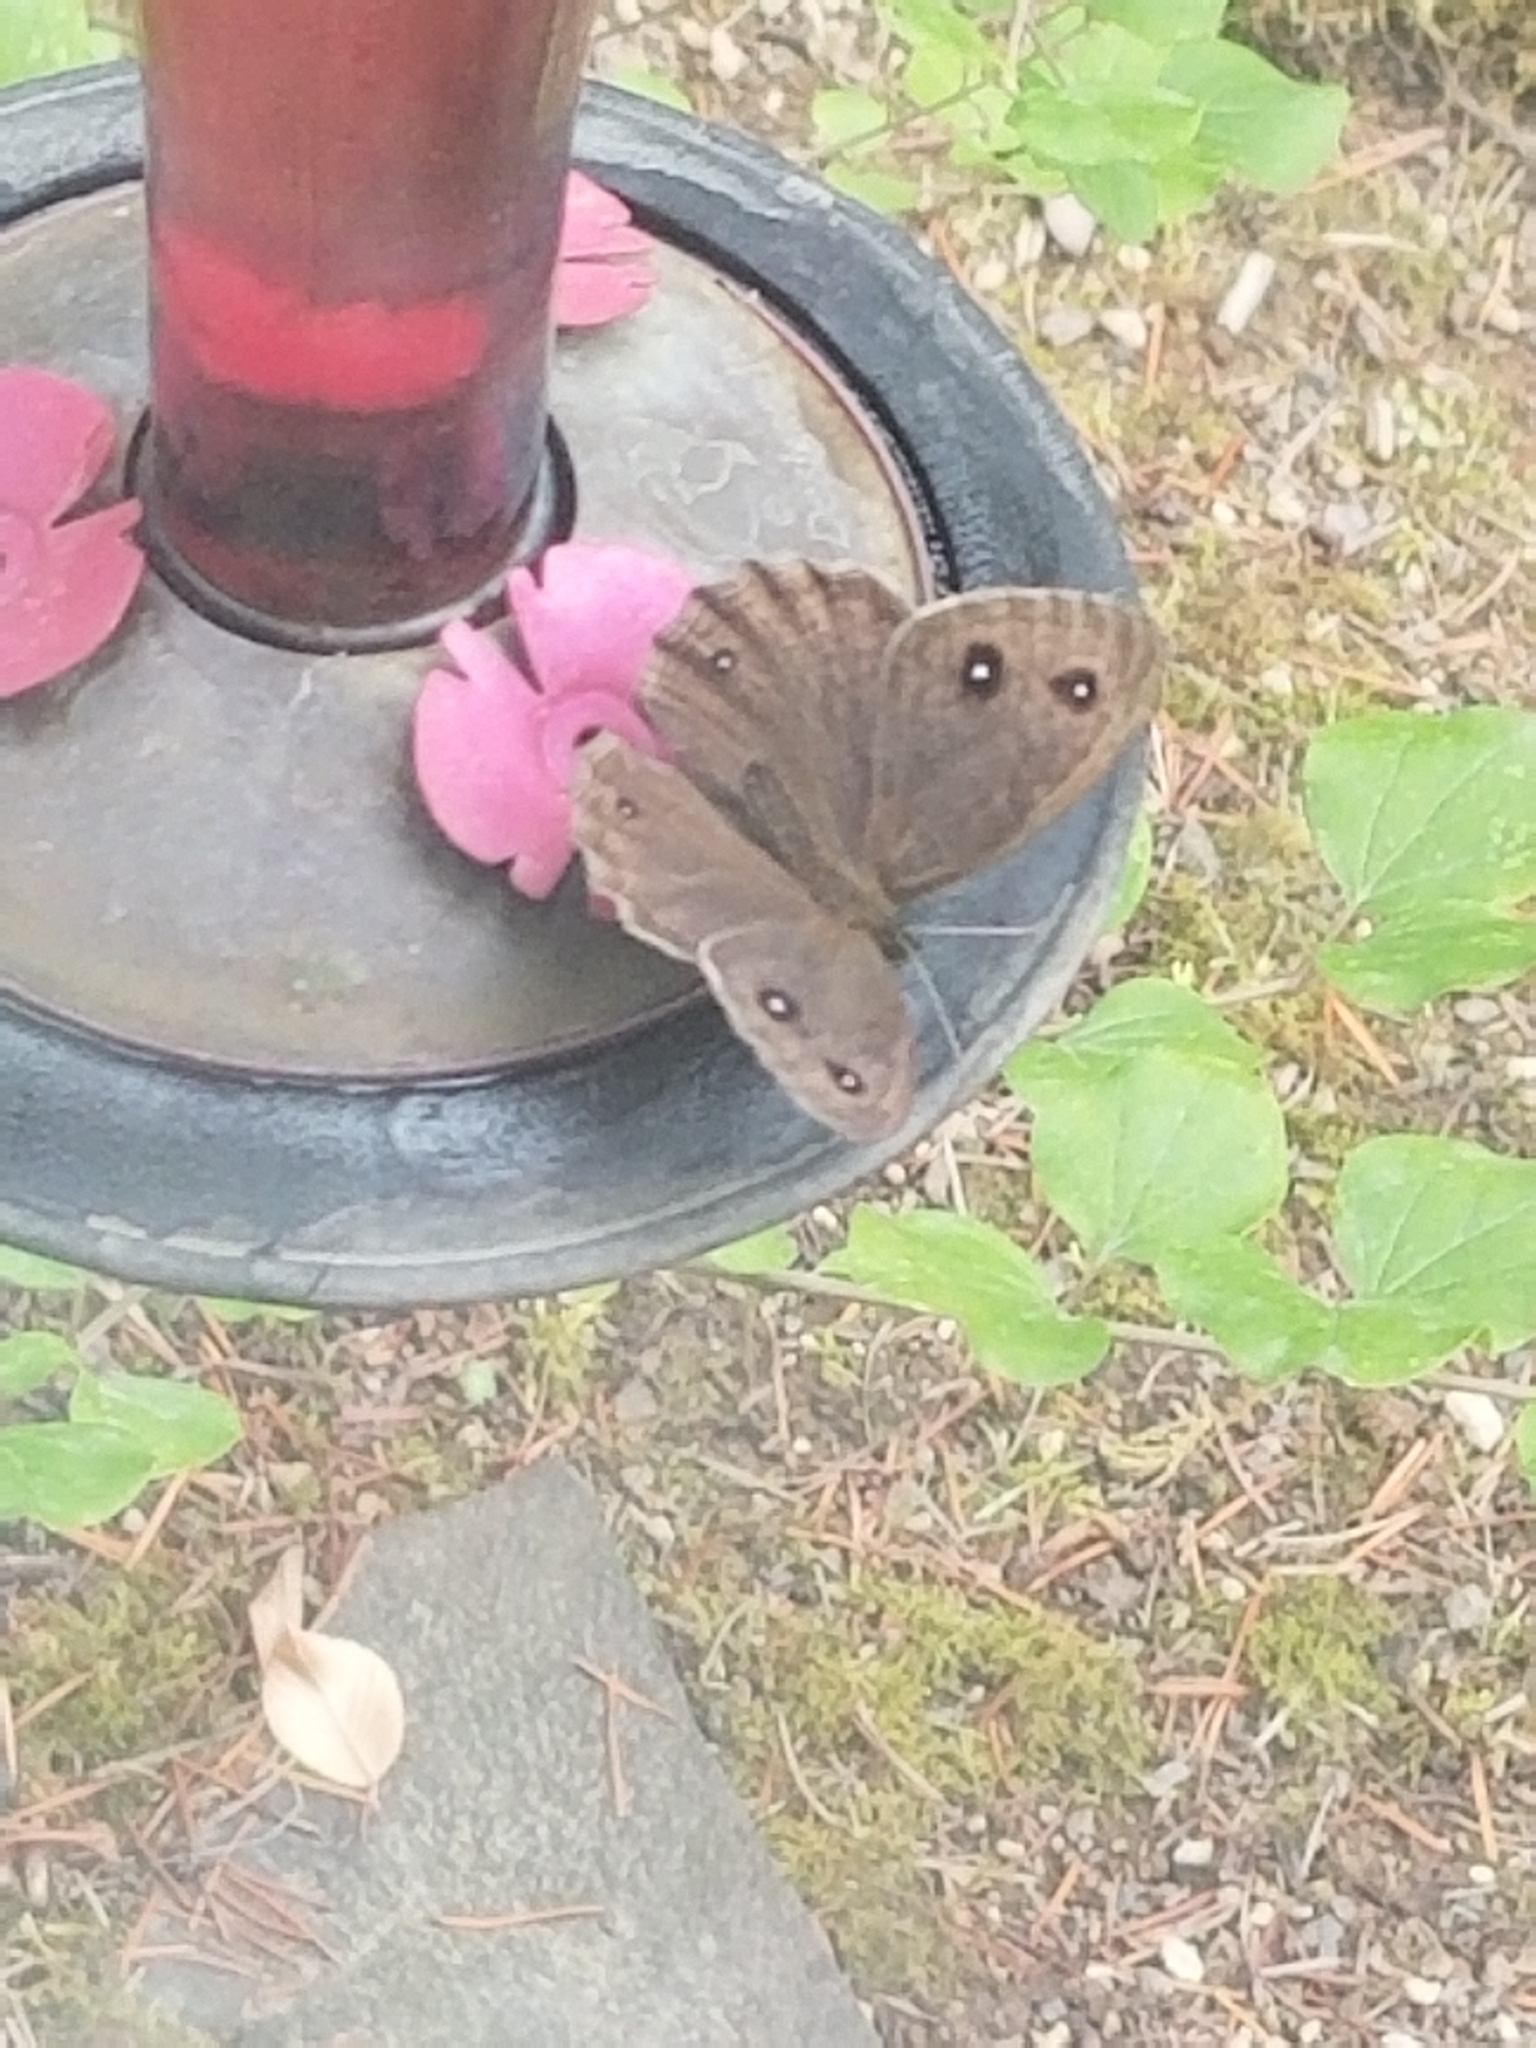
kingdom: Animalia
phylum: Arthropoda
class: Insecta
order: Lepidoptera
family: Nymphalidae
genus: Cercyonis
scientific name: Cercyonis pegala
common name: Common wood-nymph
